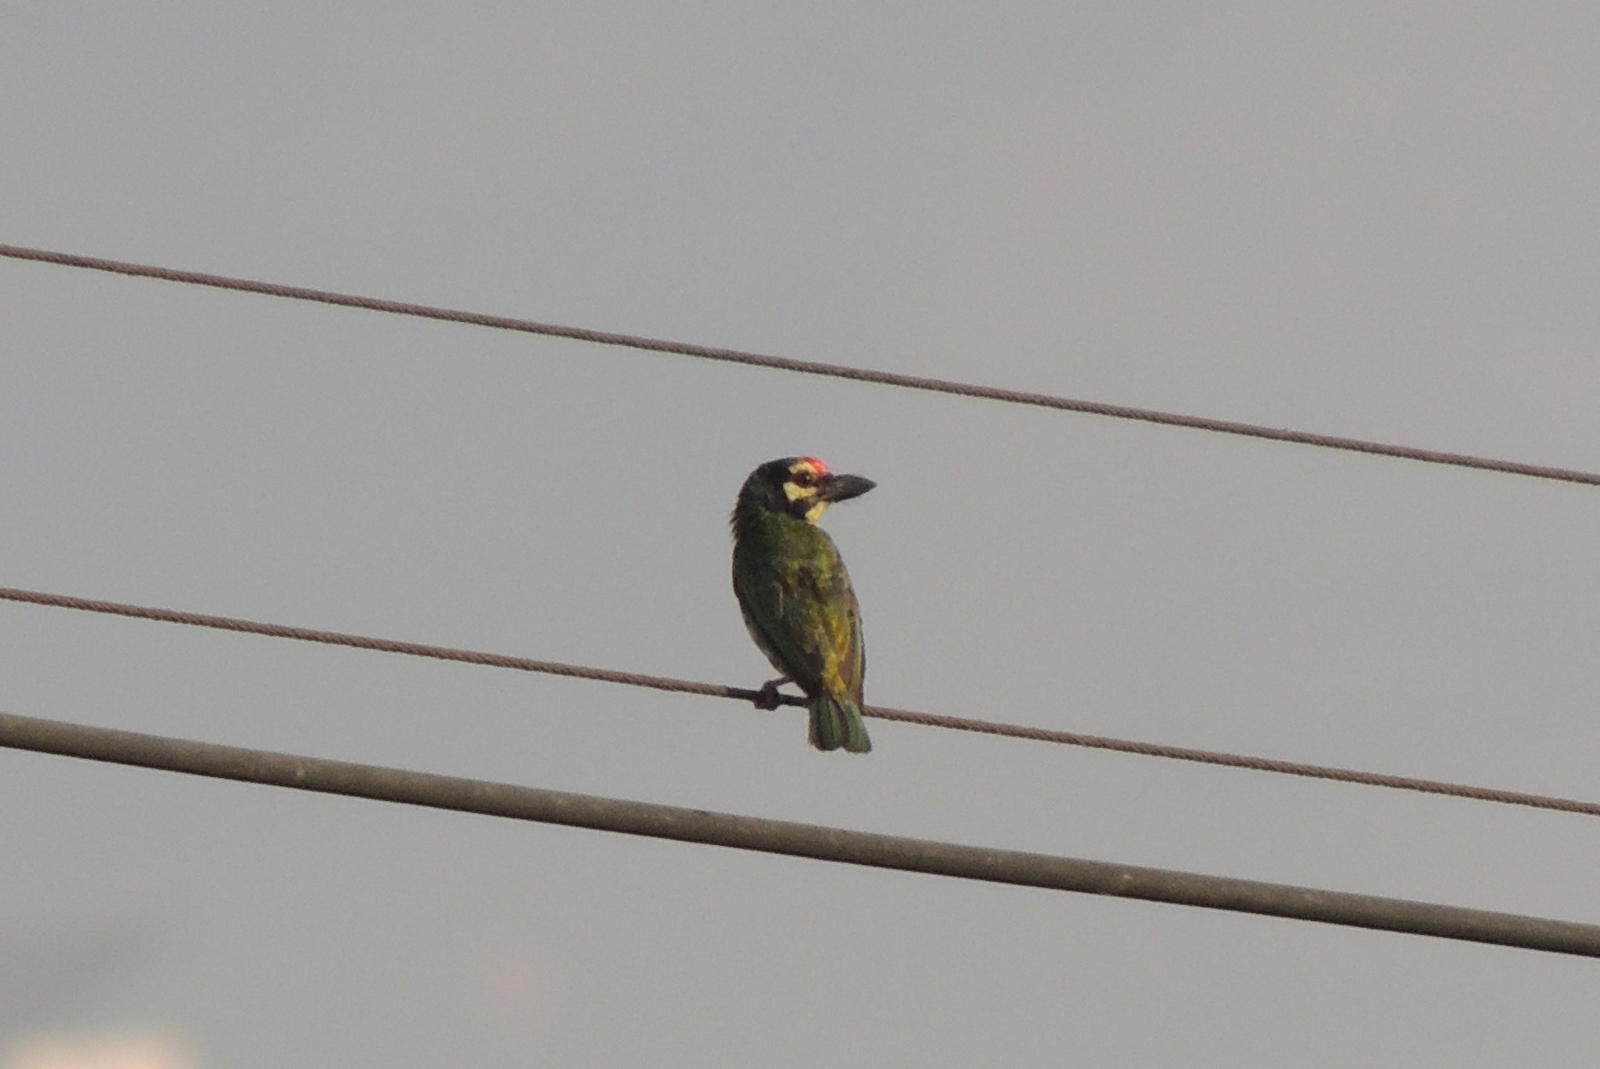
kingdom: Animalia
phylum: Chordata
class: Aves
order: Piciformes
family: Megalaimidae
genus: Psilopogon
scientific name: Psilopogon haemacephalus
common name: Coppersmith barbet
